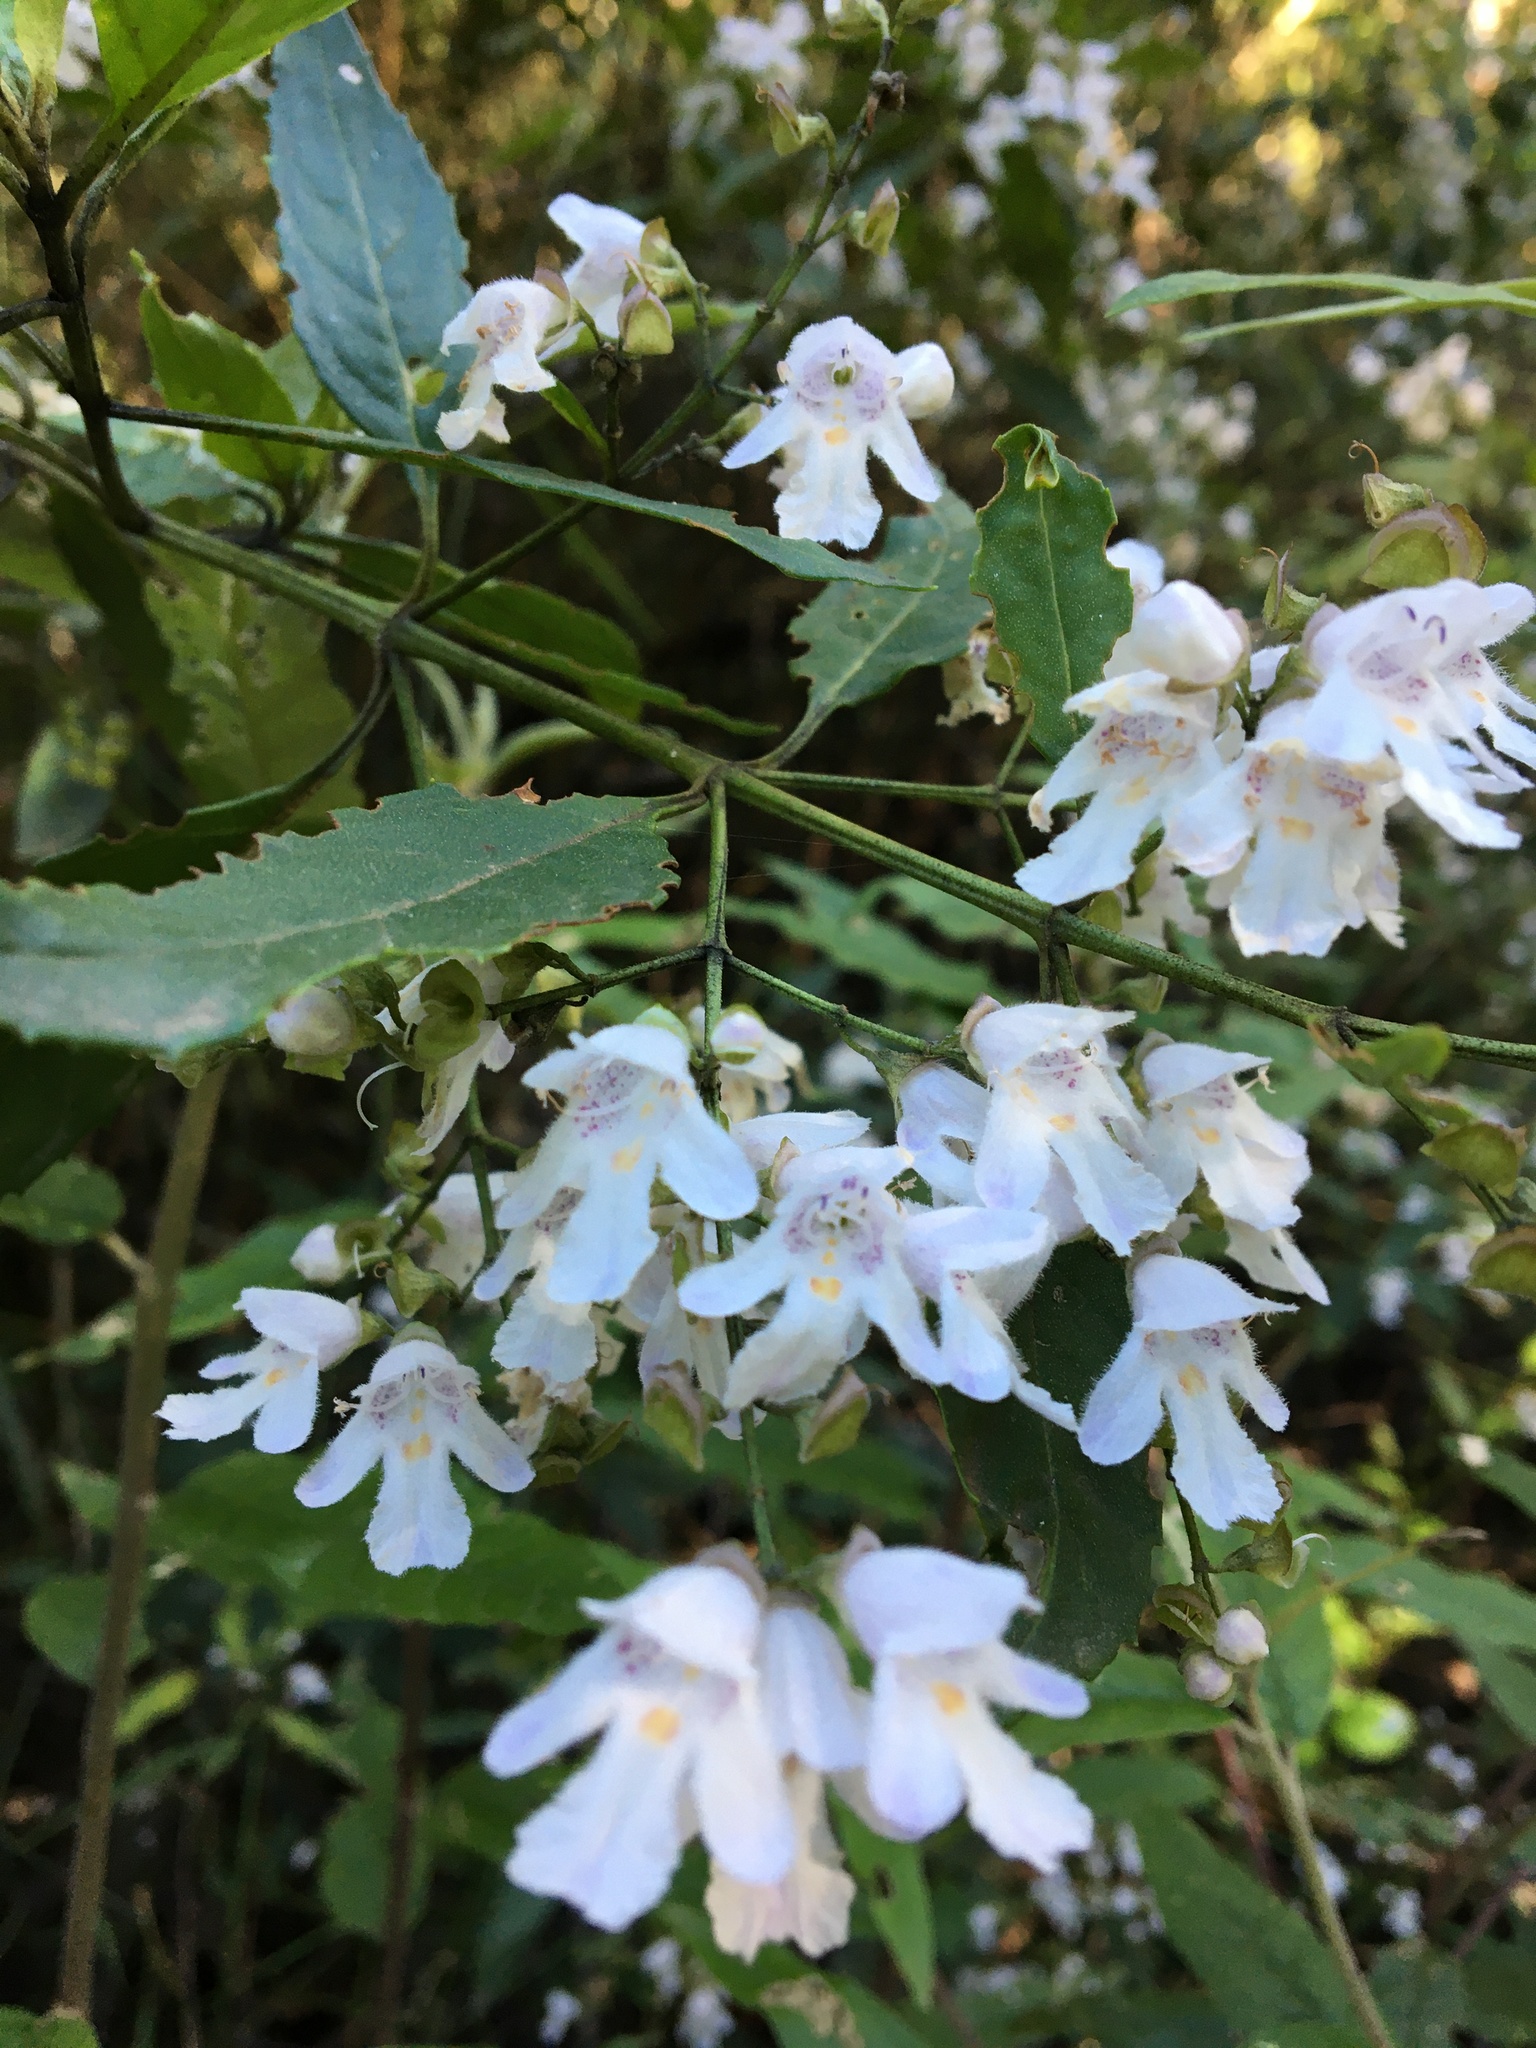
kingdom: Plantae
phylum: Tracheophyta
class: Magnoliopsida
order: Lamiales
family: Lamiaceae
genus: Prostanthera
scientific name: Prostanthera lasianthos
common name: Mountain-lilac
